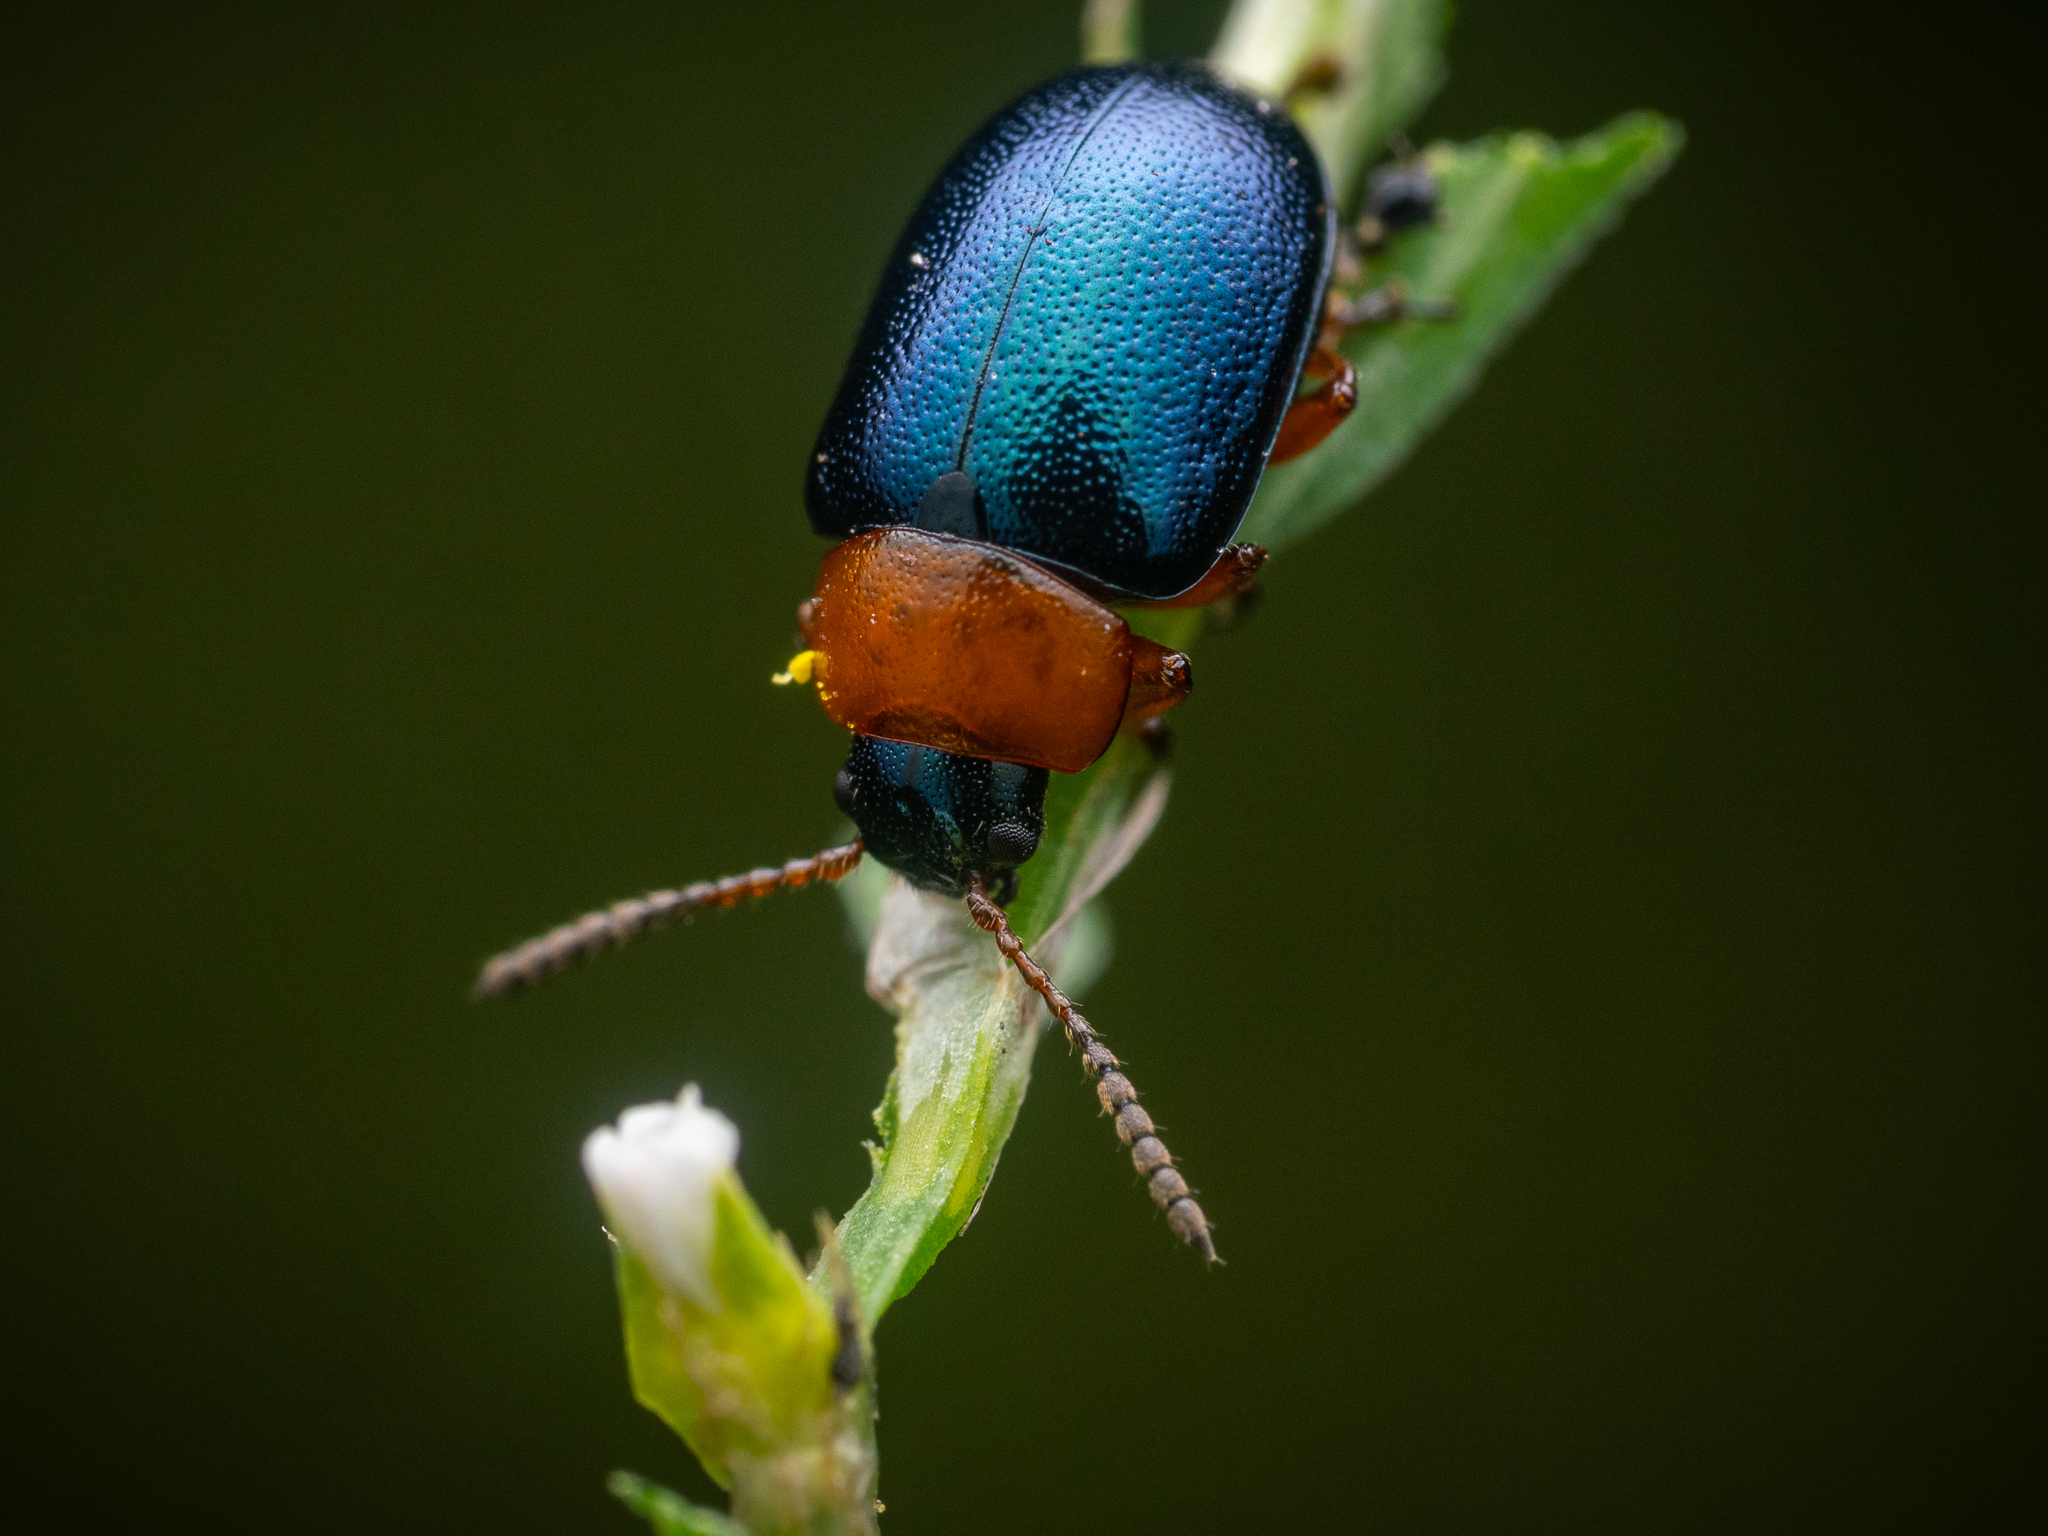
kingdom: Animalia
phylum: Arthropoda
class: Insecta
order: Coleoptera
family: Chrysomelidae
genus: Gastrophysa
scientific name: Gastrophysa polygoni
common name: Knotweed leaf beetle
